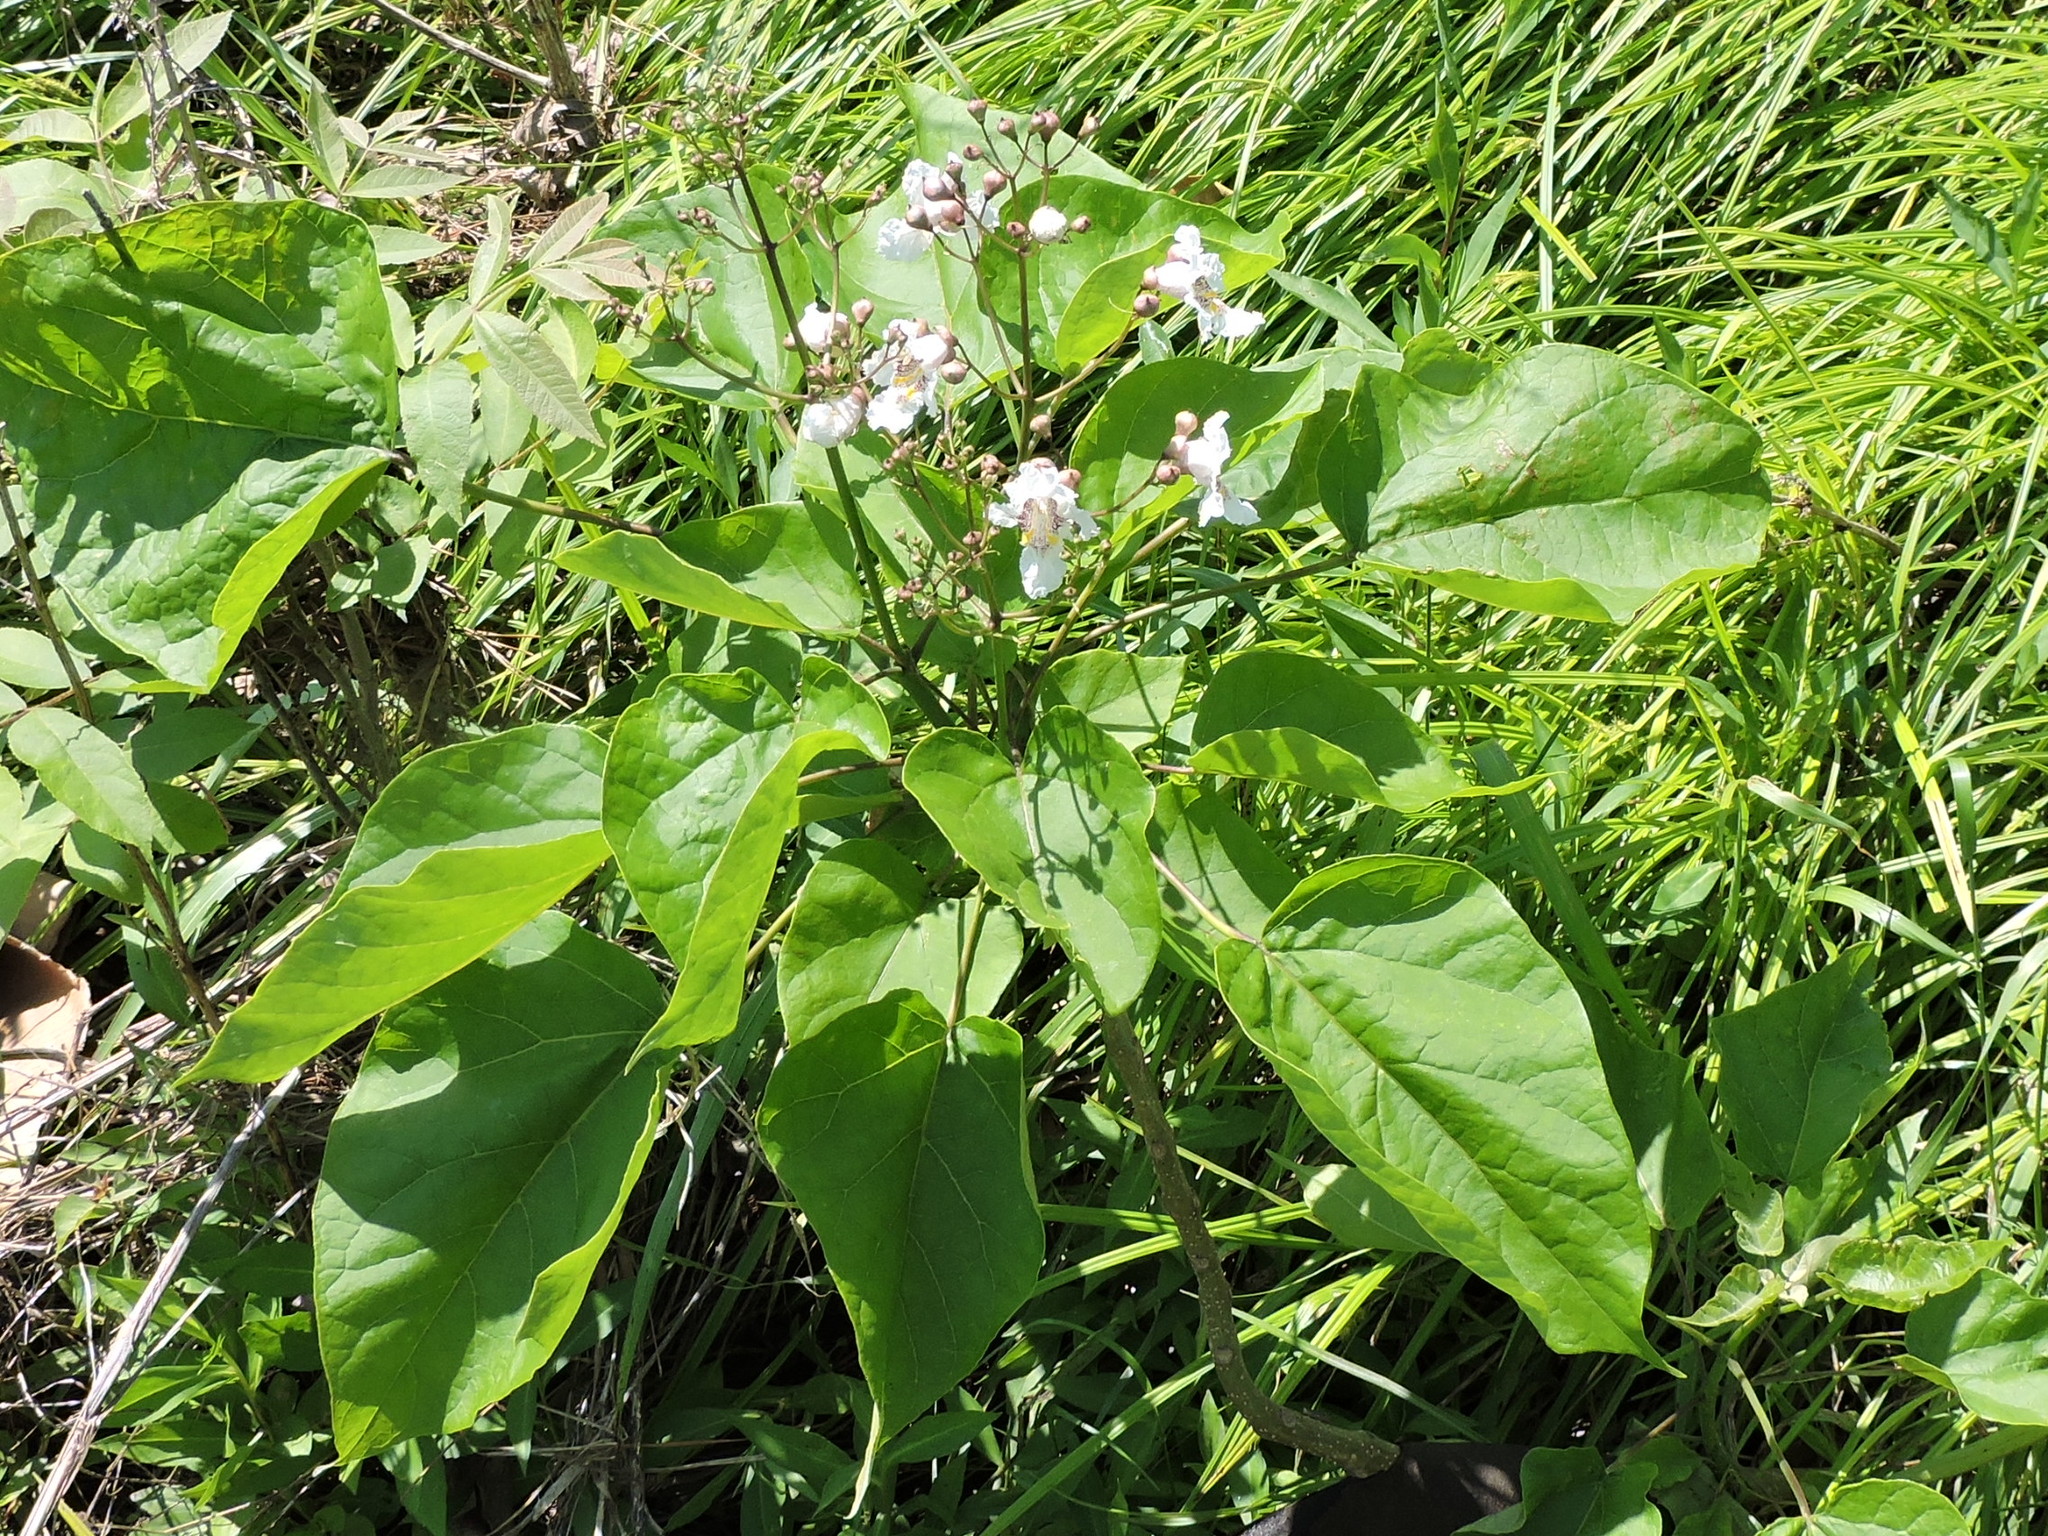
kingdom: Plantae
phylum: Tracheophyta
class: Magnoliopsida
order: Lamiales
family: Bignoniaceae
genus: Catalpa
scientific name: Catalpa speciosa
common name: Northern catalpa
